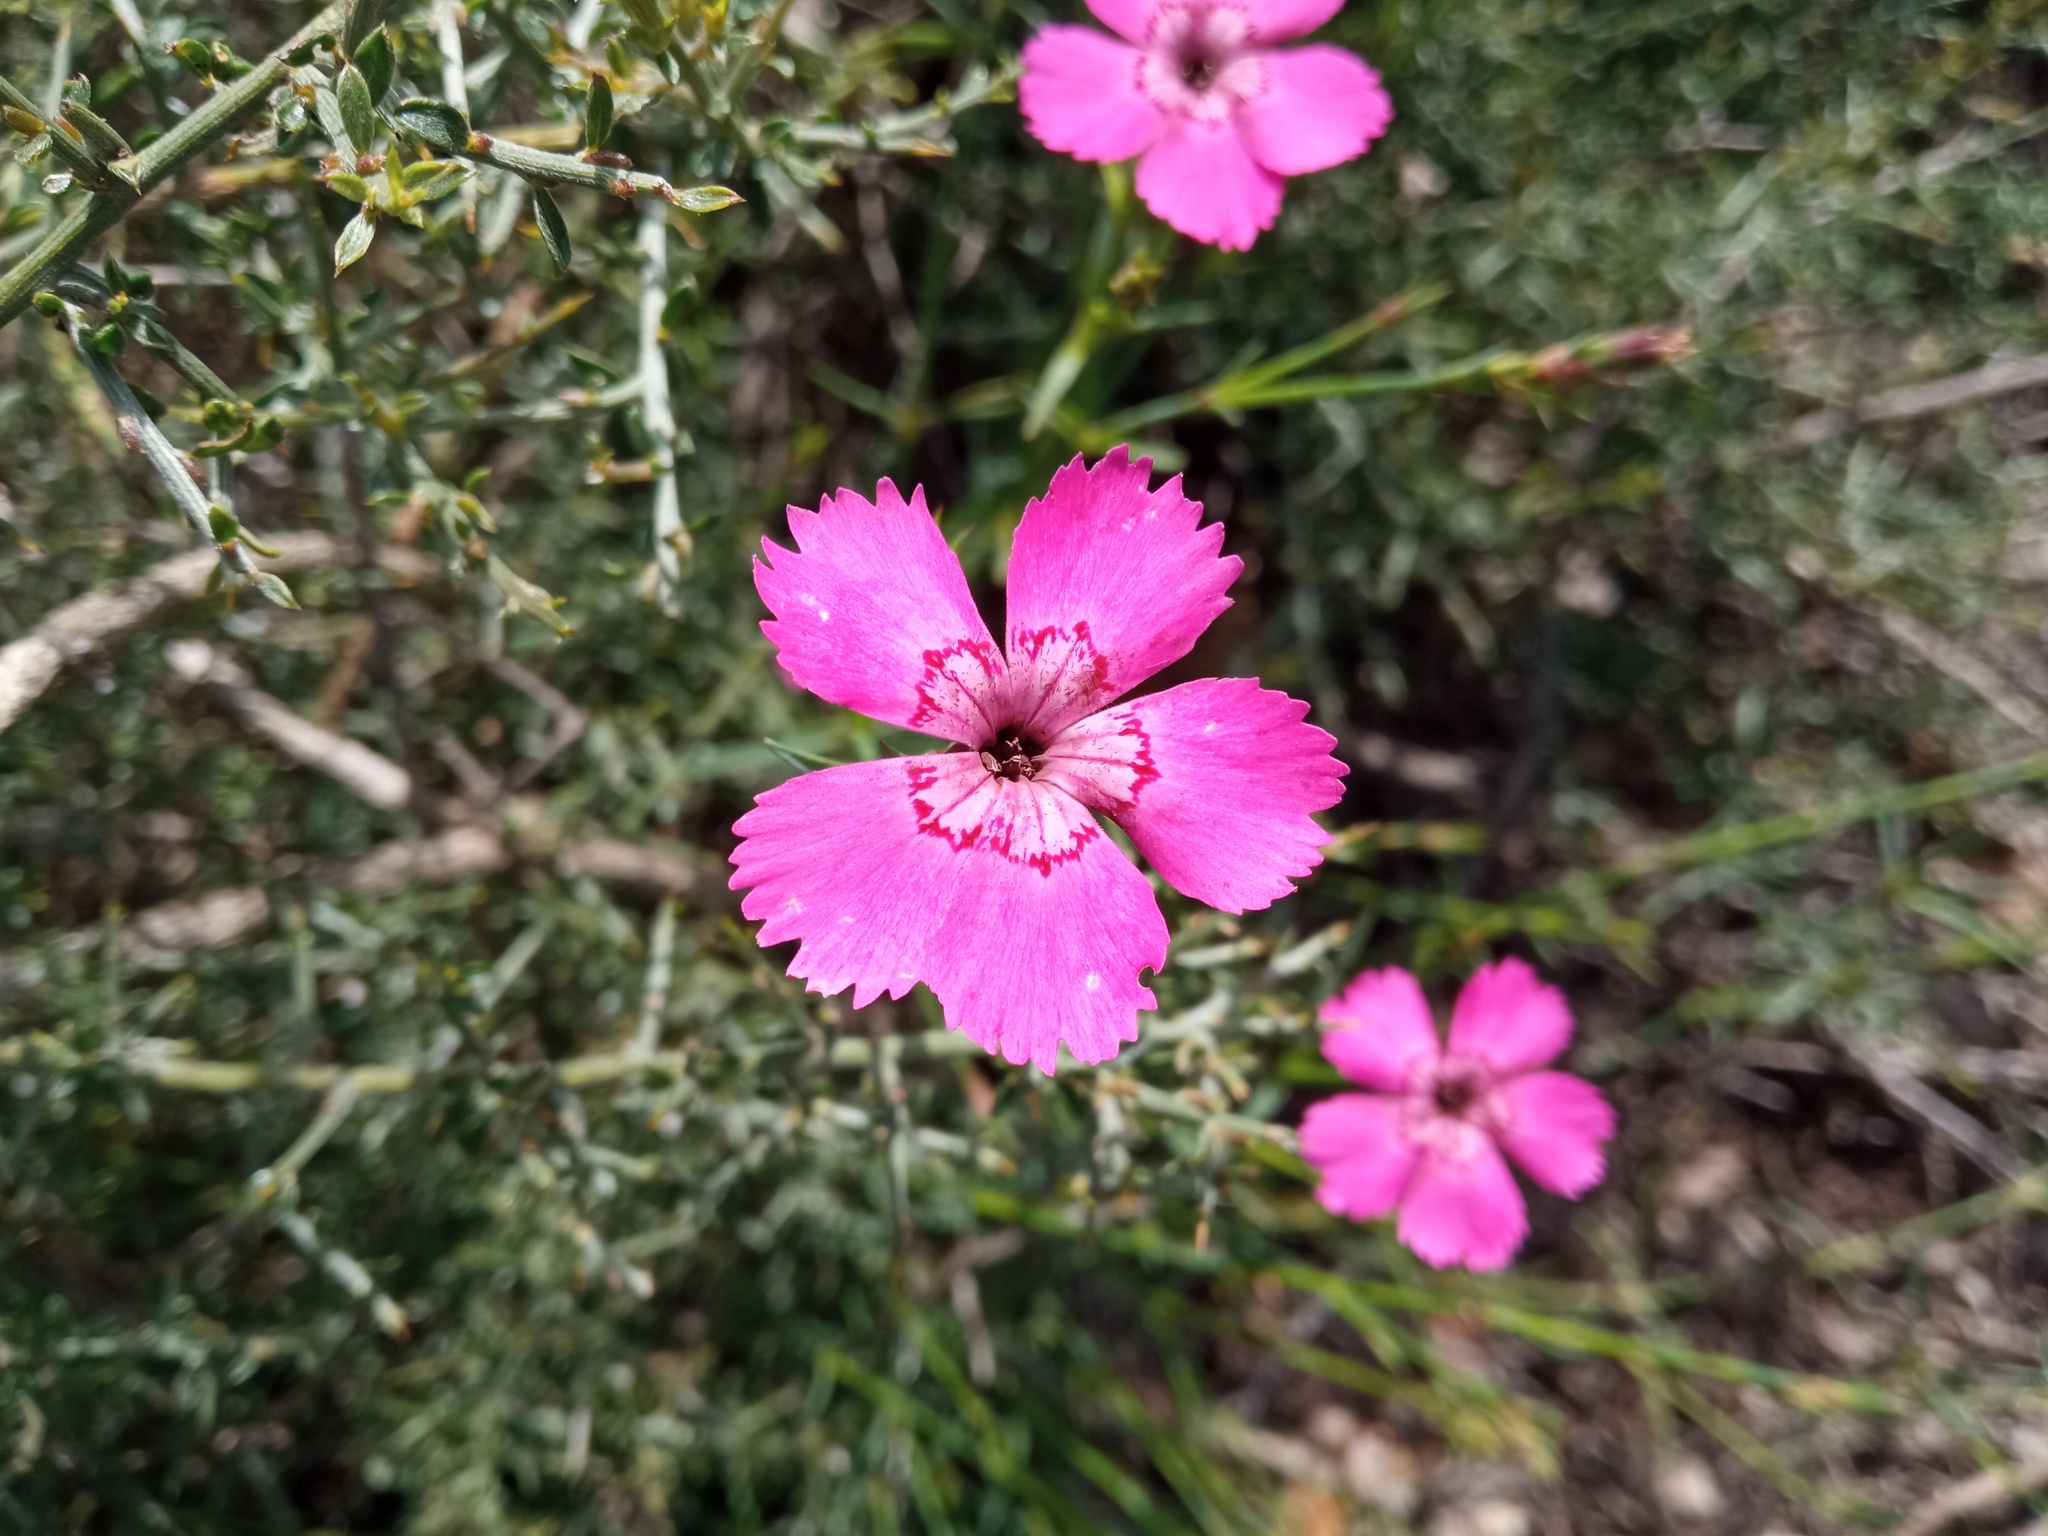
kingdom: Plantae
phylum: Tracheophyta
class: Magnoliopsida
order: Caryophyllales
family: Caryophyllaceae
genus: Dianthus
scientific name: Dianthus seguieri
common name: Ragged pink
